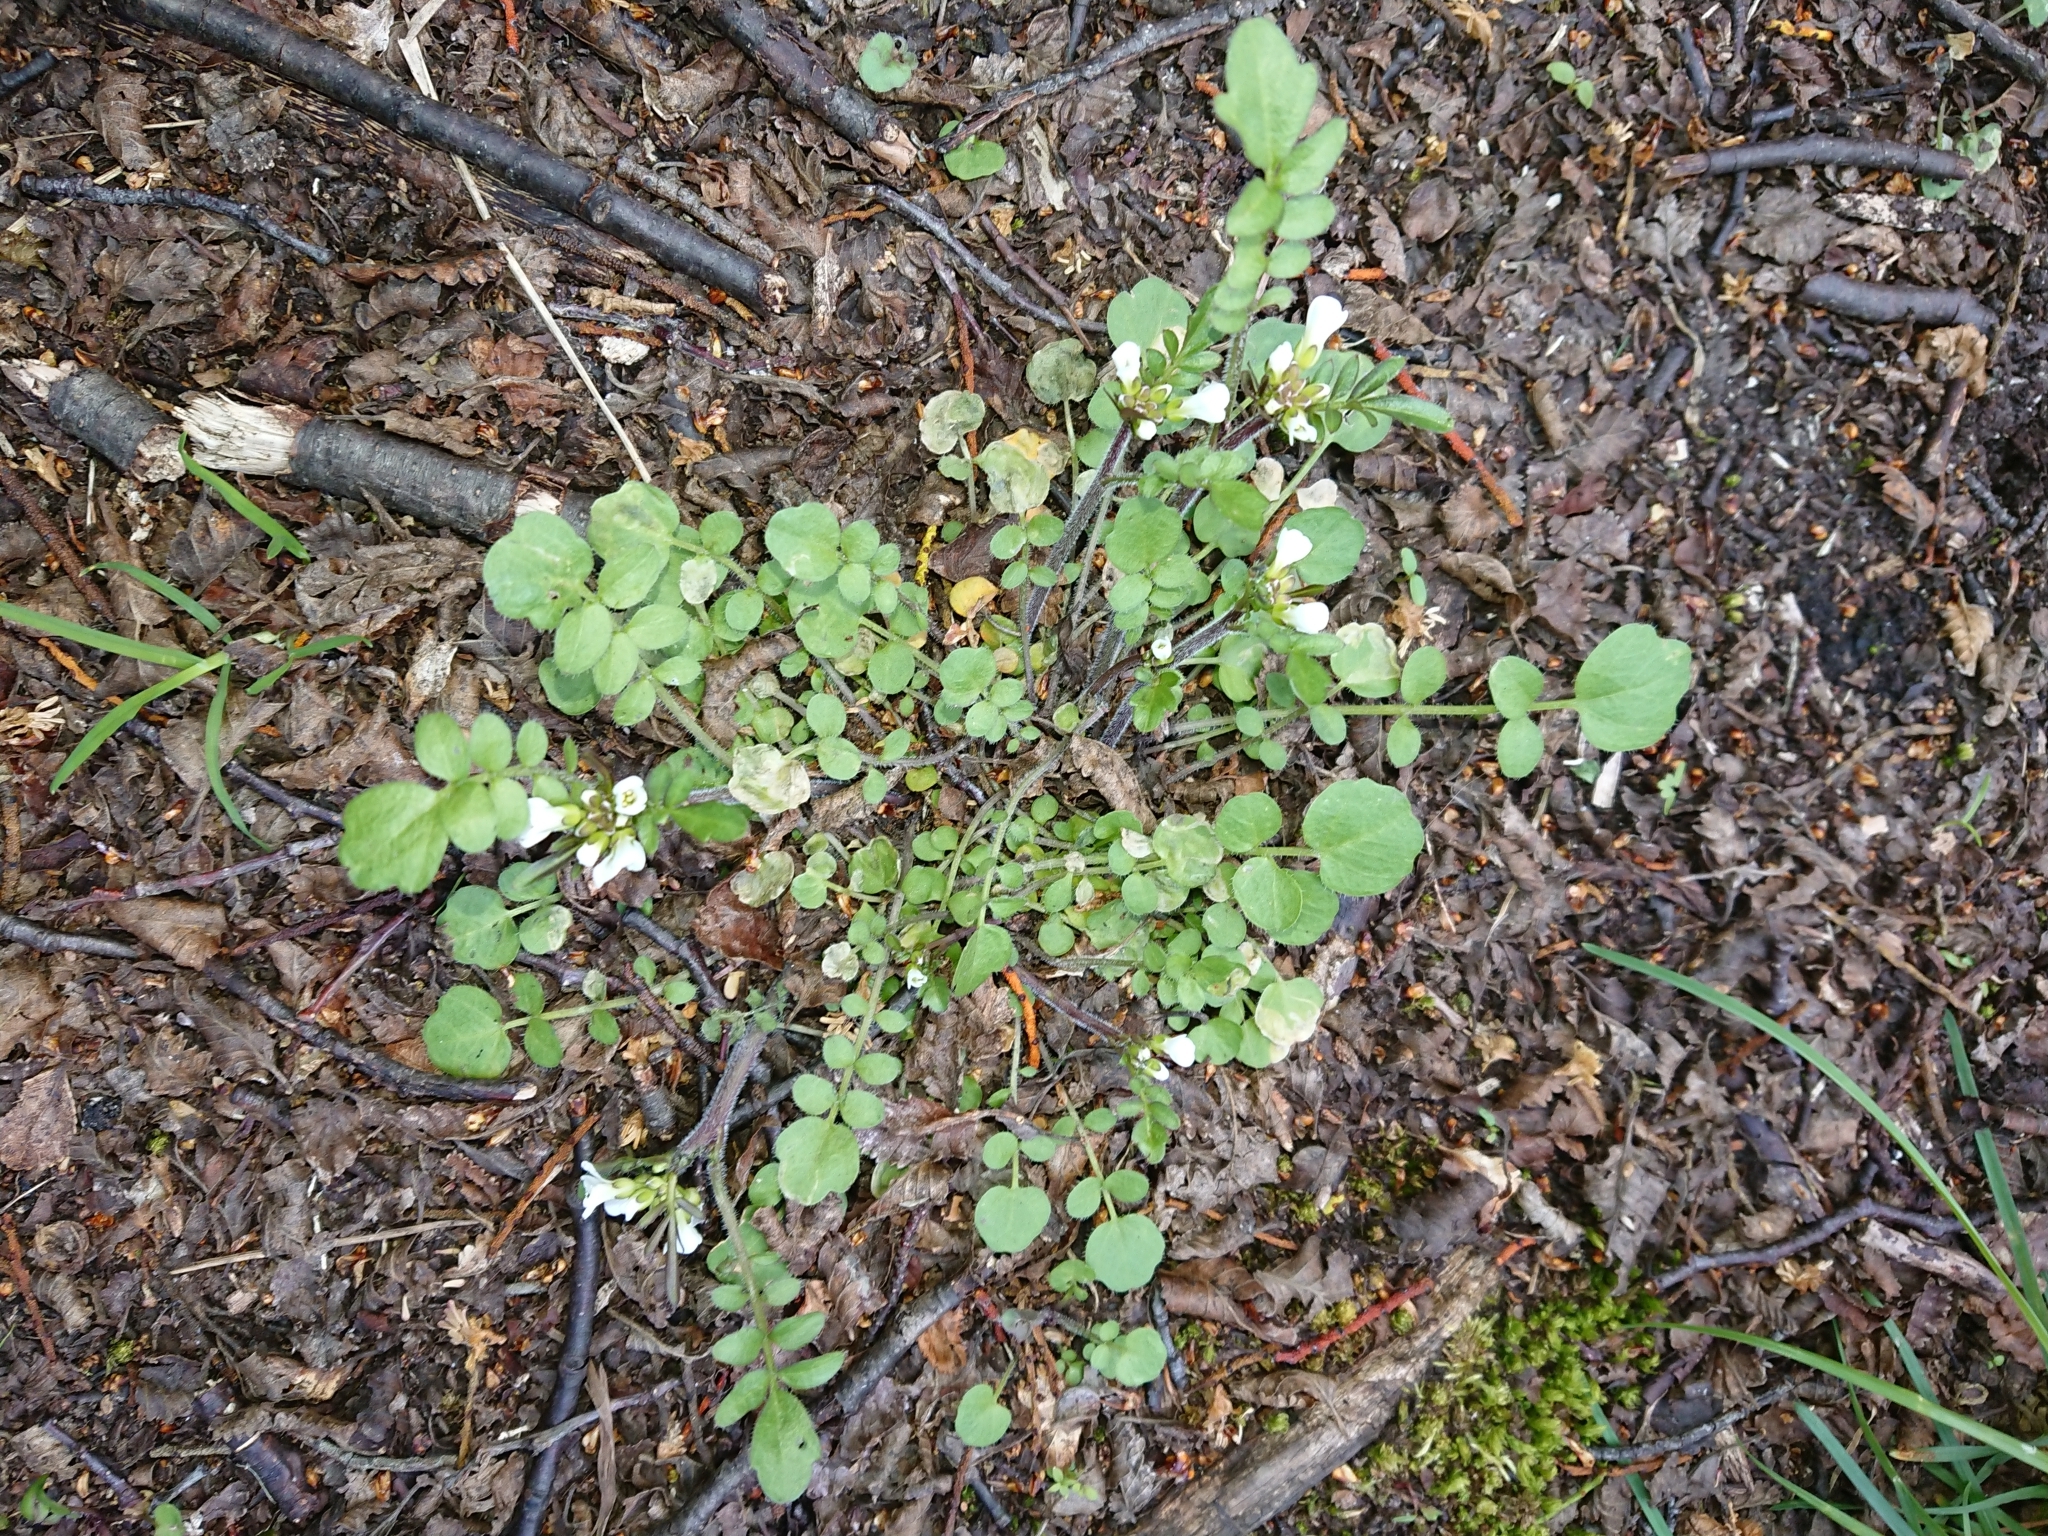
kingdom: Plantae
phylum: Tracheophyta
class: Magnoliopsida
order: Brassicales
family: Brassicaceae
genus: Cardamine
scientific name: Cardamine glacialis
